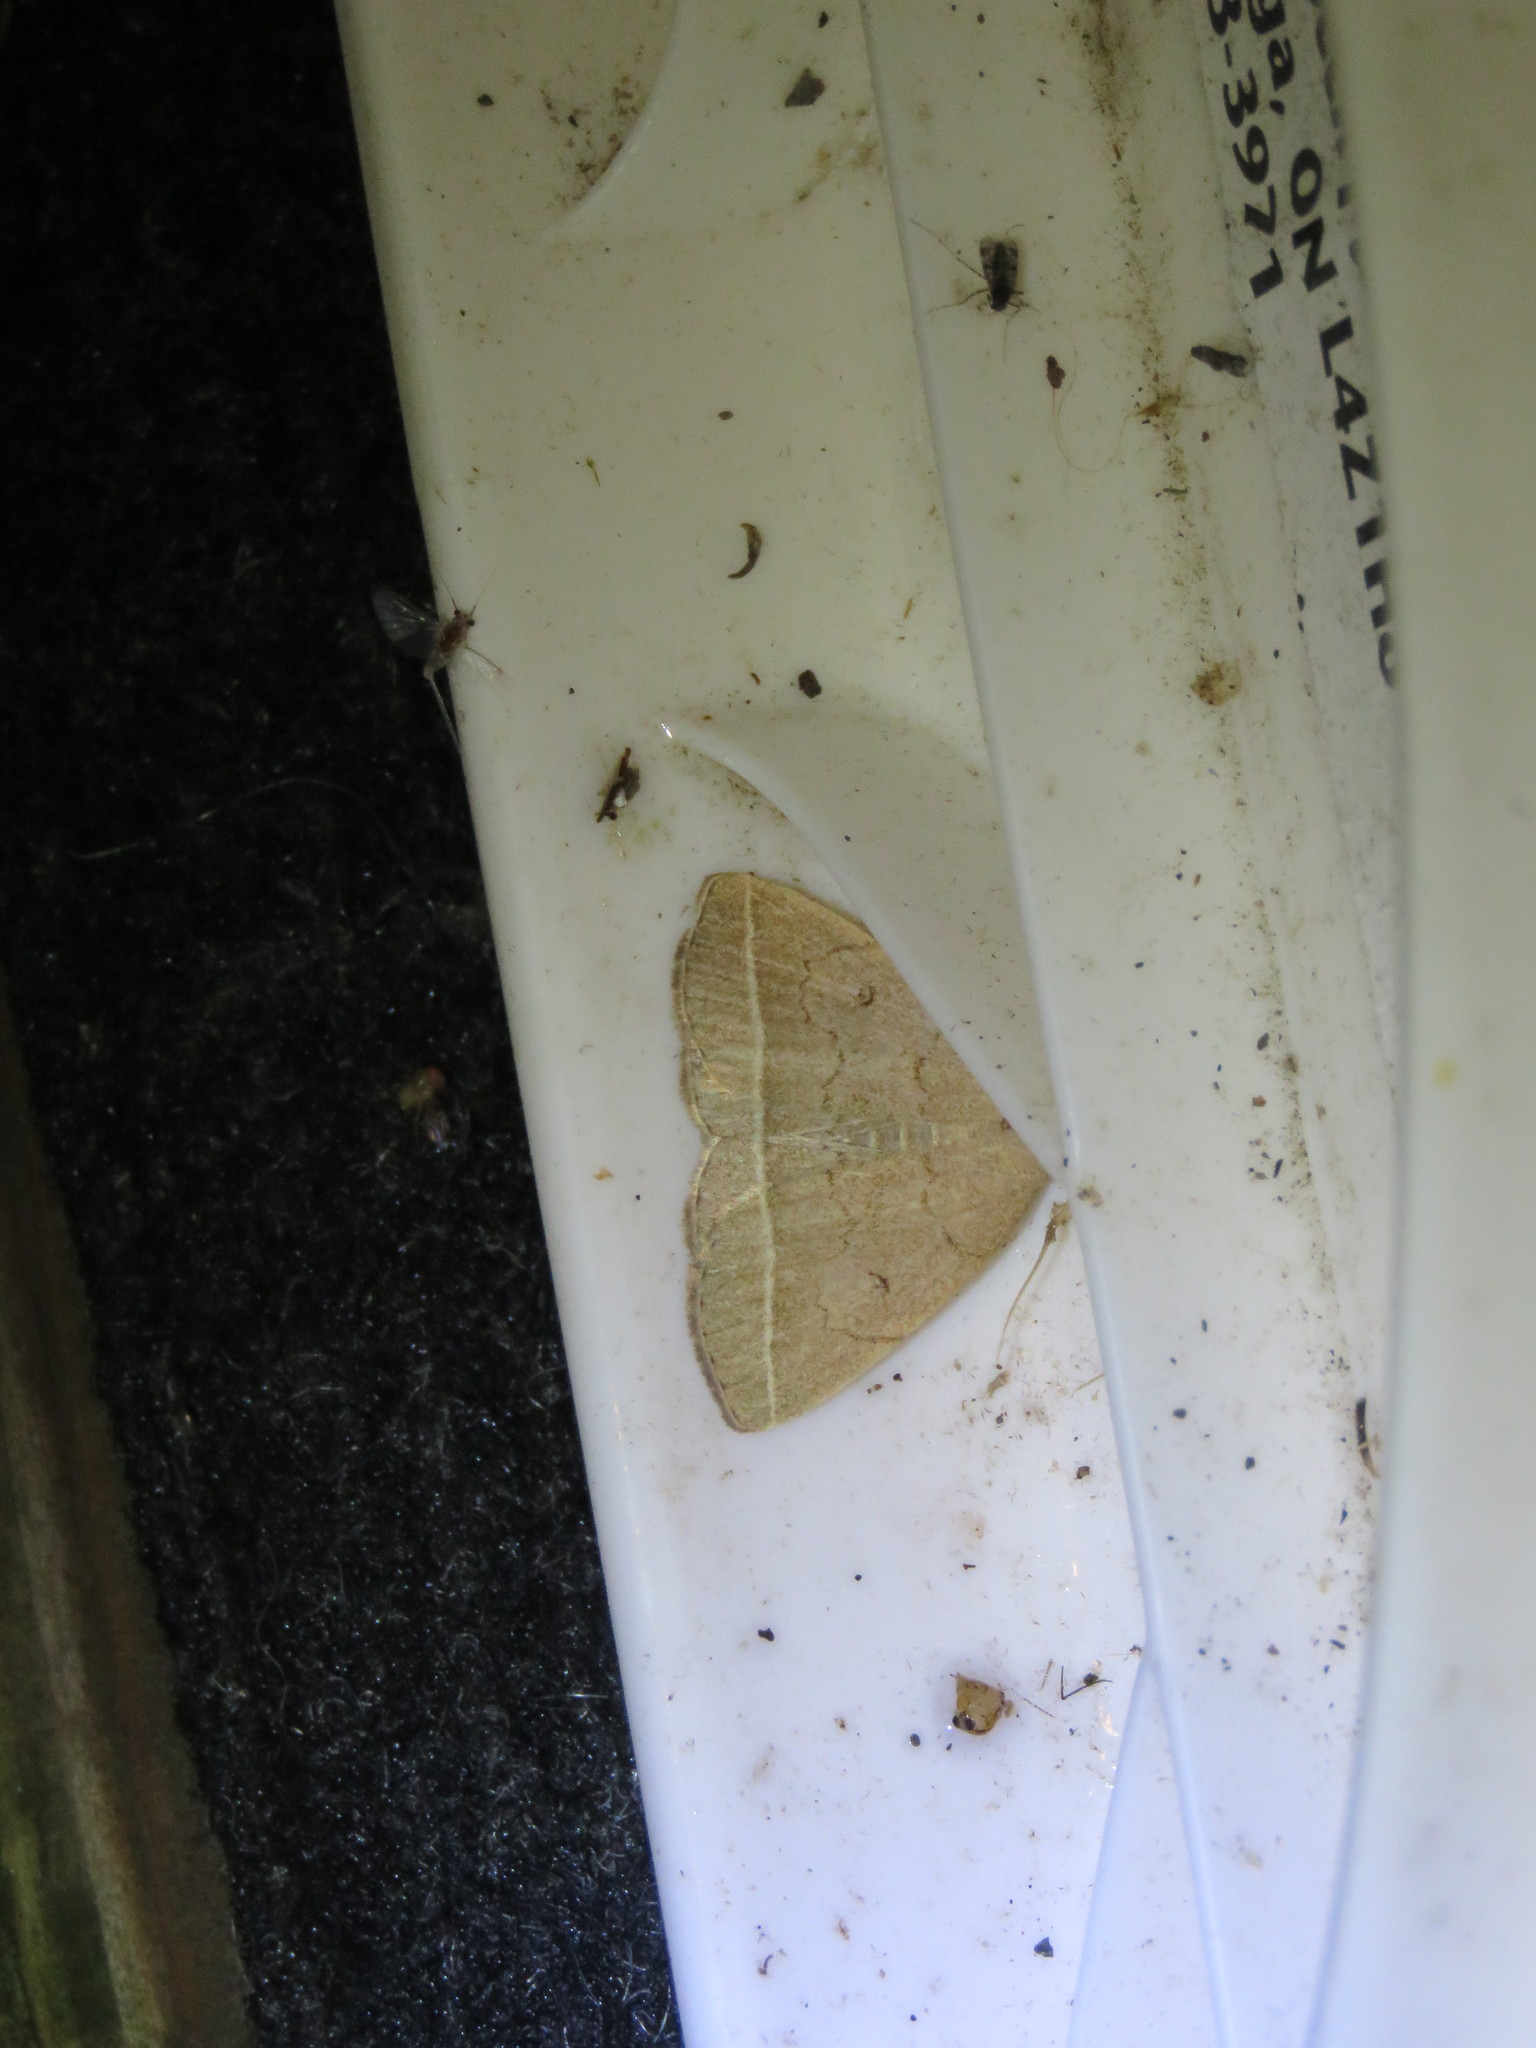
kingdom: Animalia
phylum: Arthropoda
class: Insecta
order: Lepidoptera
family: Erebidae
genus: Zanclognatha
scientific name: Zanclognatha marcidilinea
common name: Yellowish fan-foot
